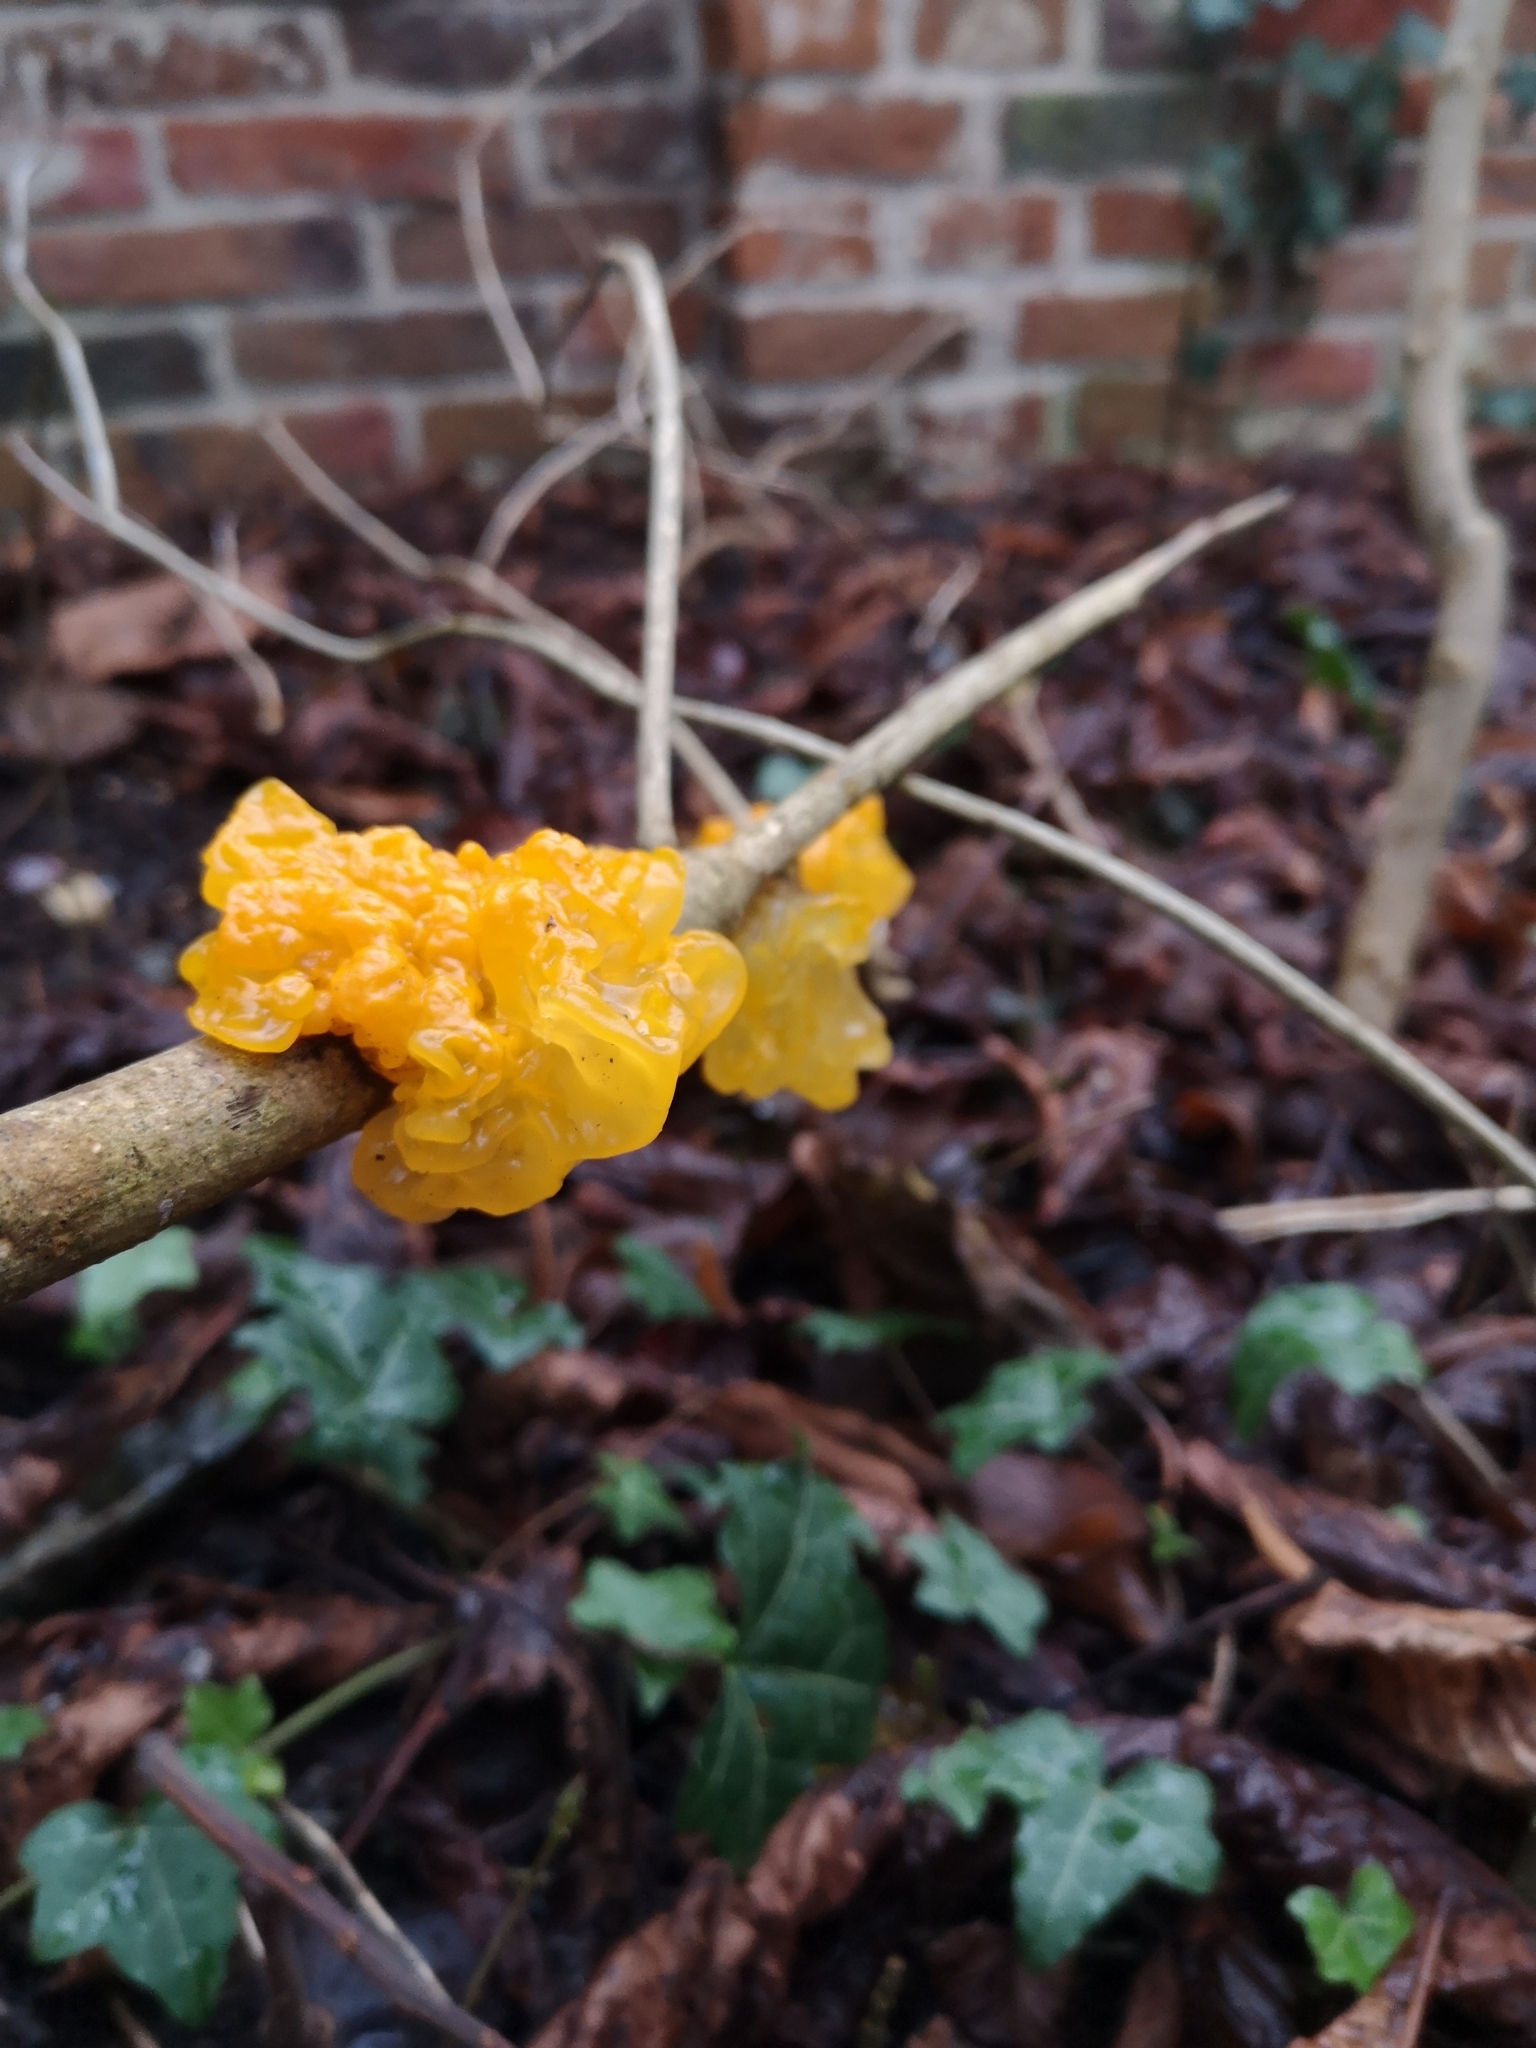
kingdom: Fungi
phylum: Basidiomycota
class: Tremellomycetes
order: Tremellales
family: Tremellaceae
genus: Tremella
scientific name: Tremella mesenterica
